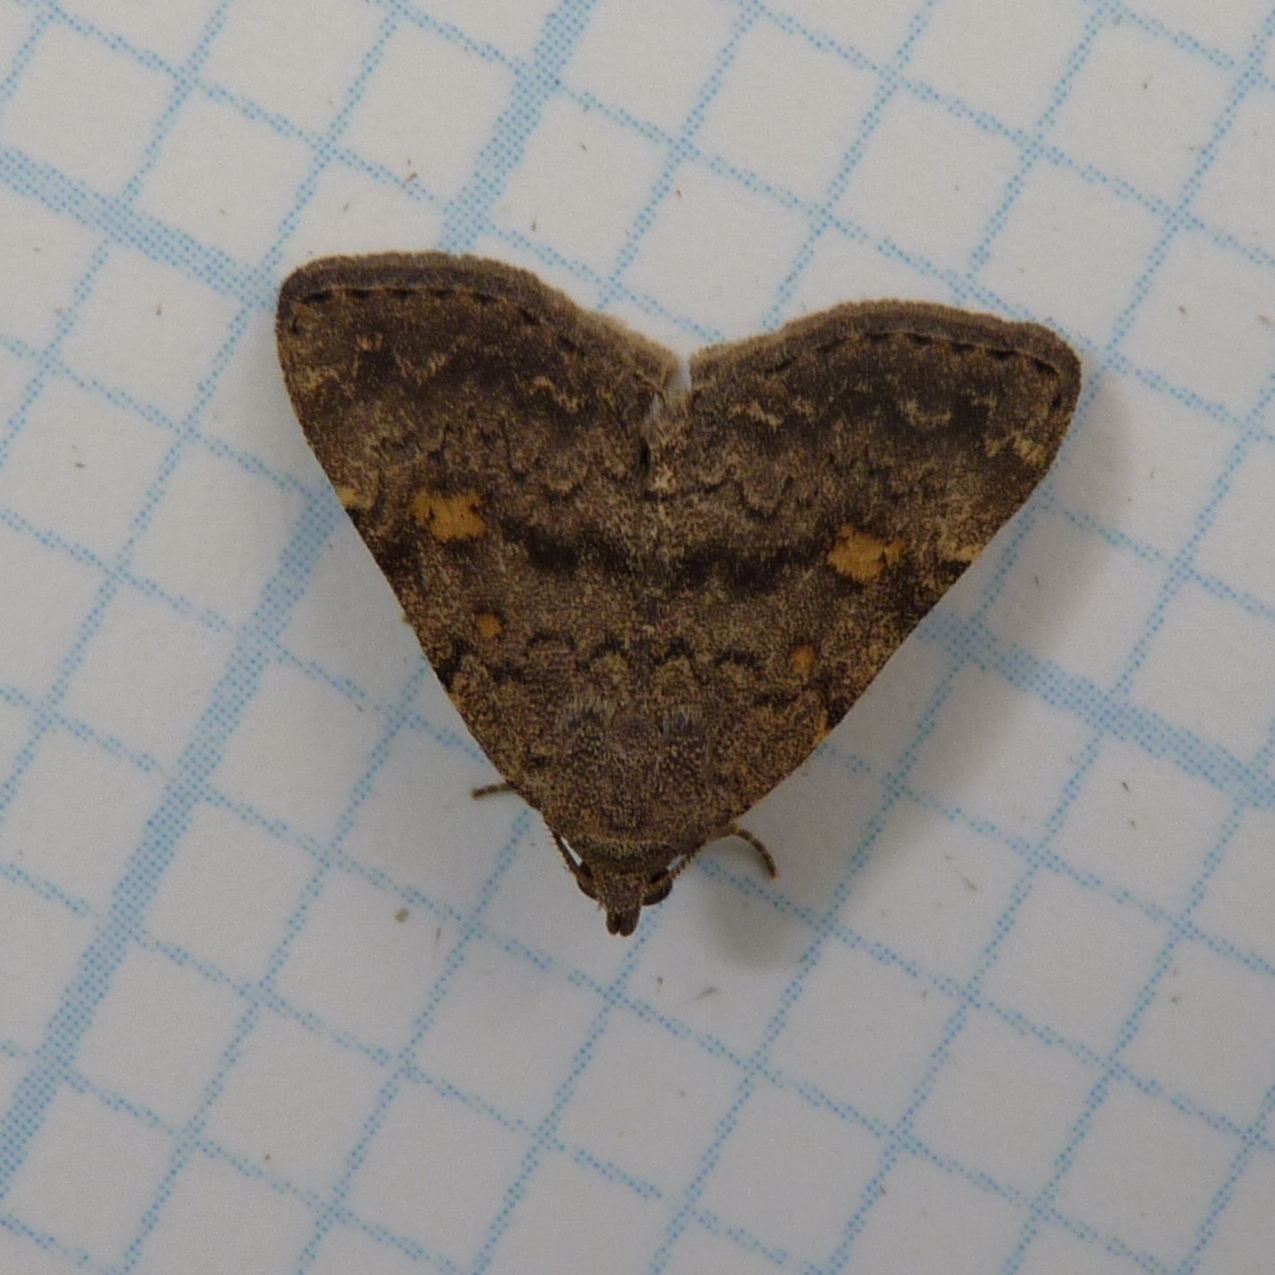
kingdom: Animalia
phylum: Arthropoda
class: Insecta
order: Lepidoptera
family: Erebidae
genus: Idia
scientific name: Idia aemula
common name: Common idia moth
